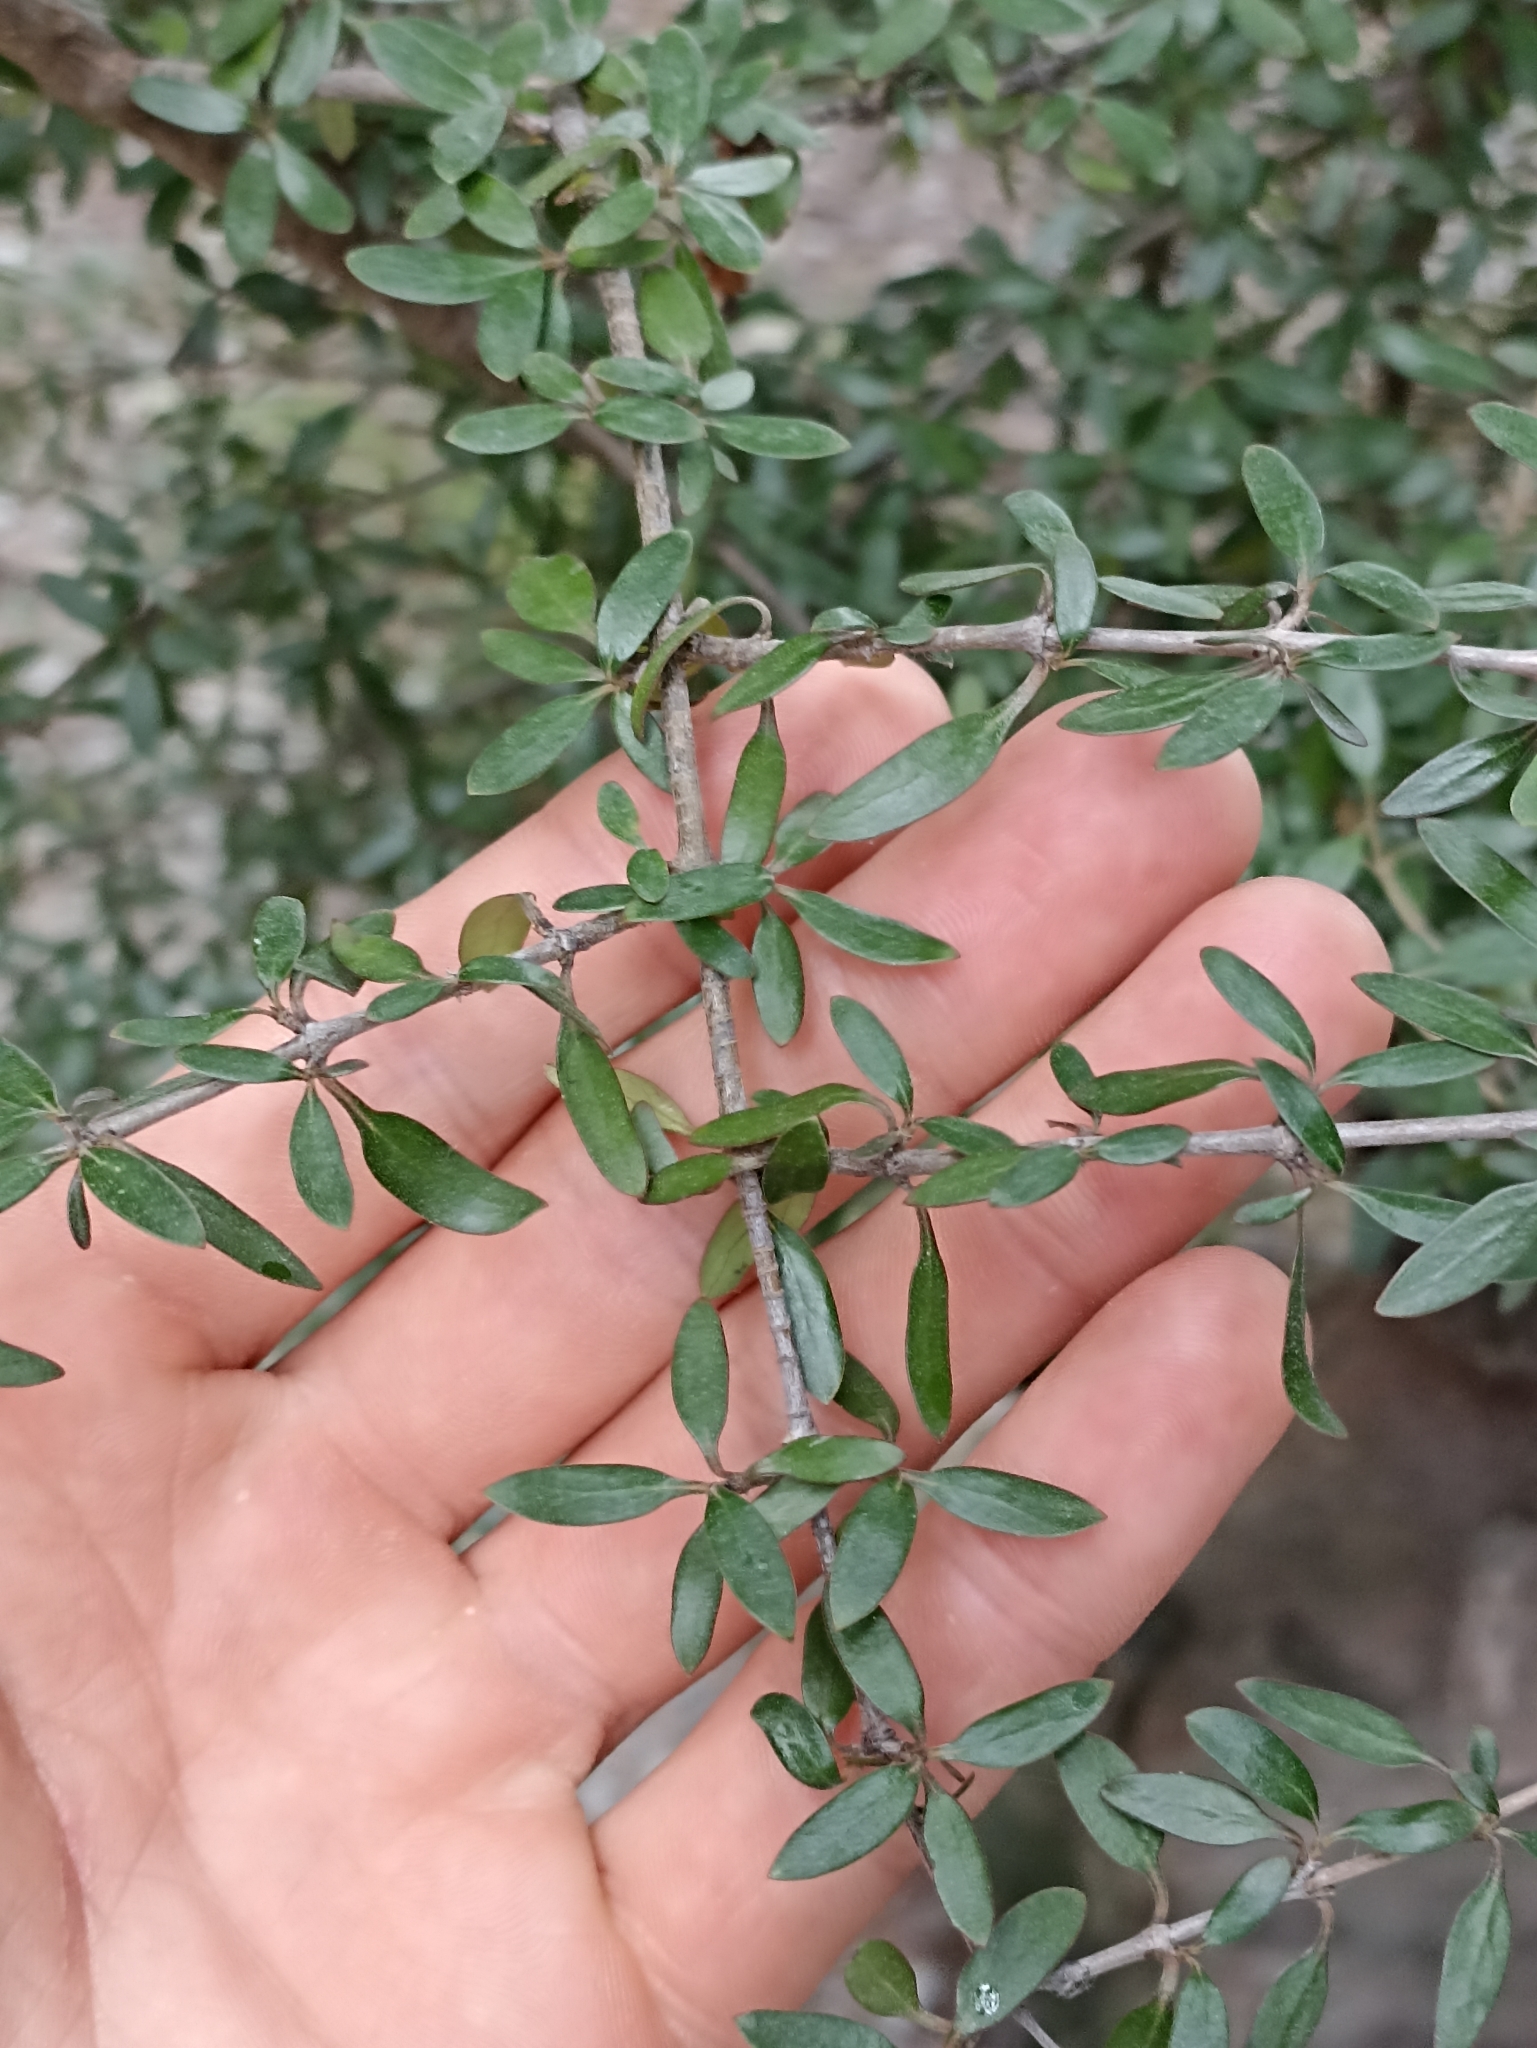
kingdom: Plantae
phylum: Tracheophyta
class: Magnoliopsida
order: Gentianales
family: Rubiaceae
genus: Coprosma
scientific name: Coprosma propinqua
